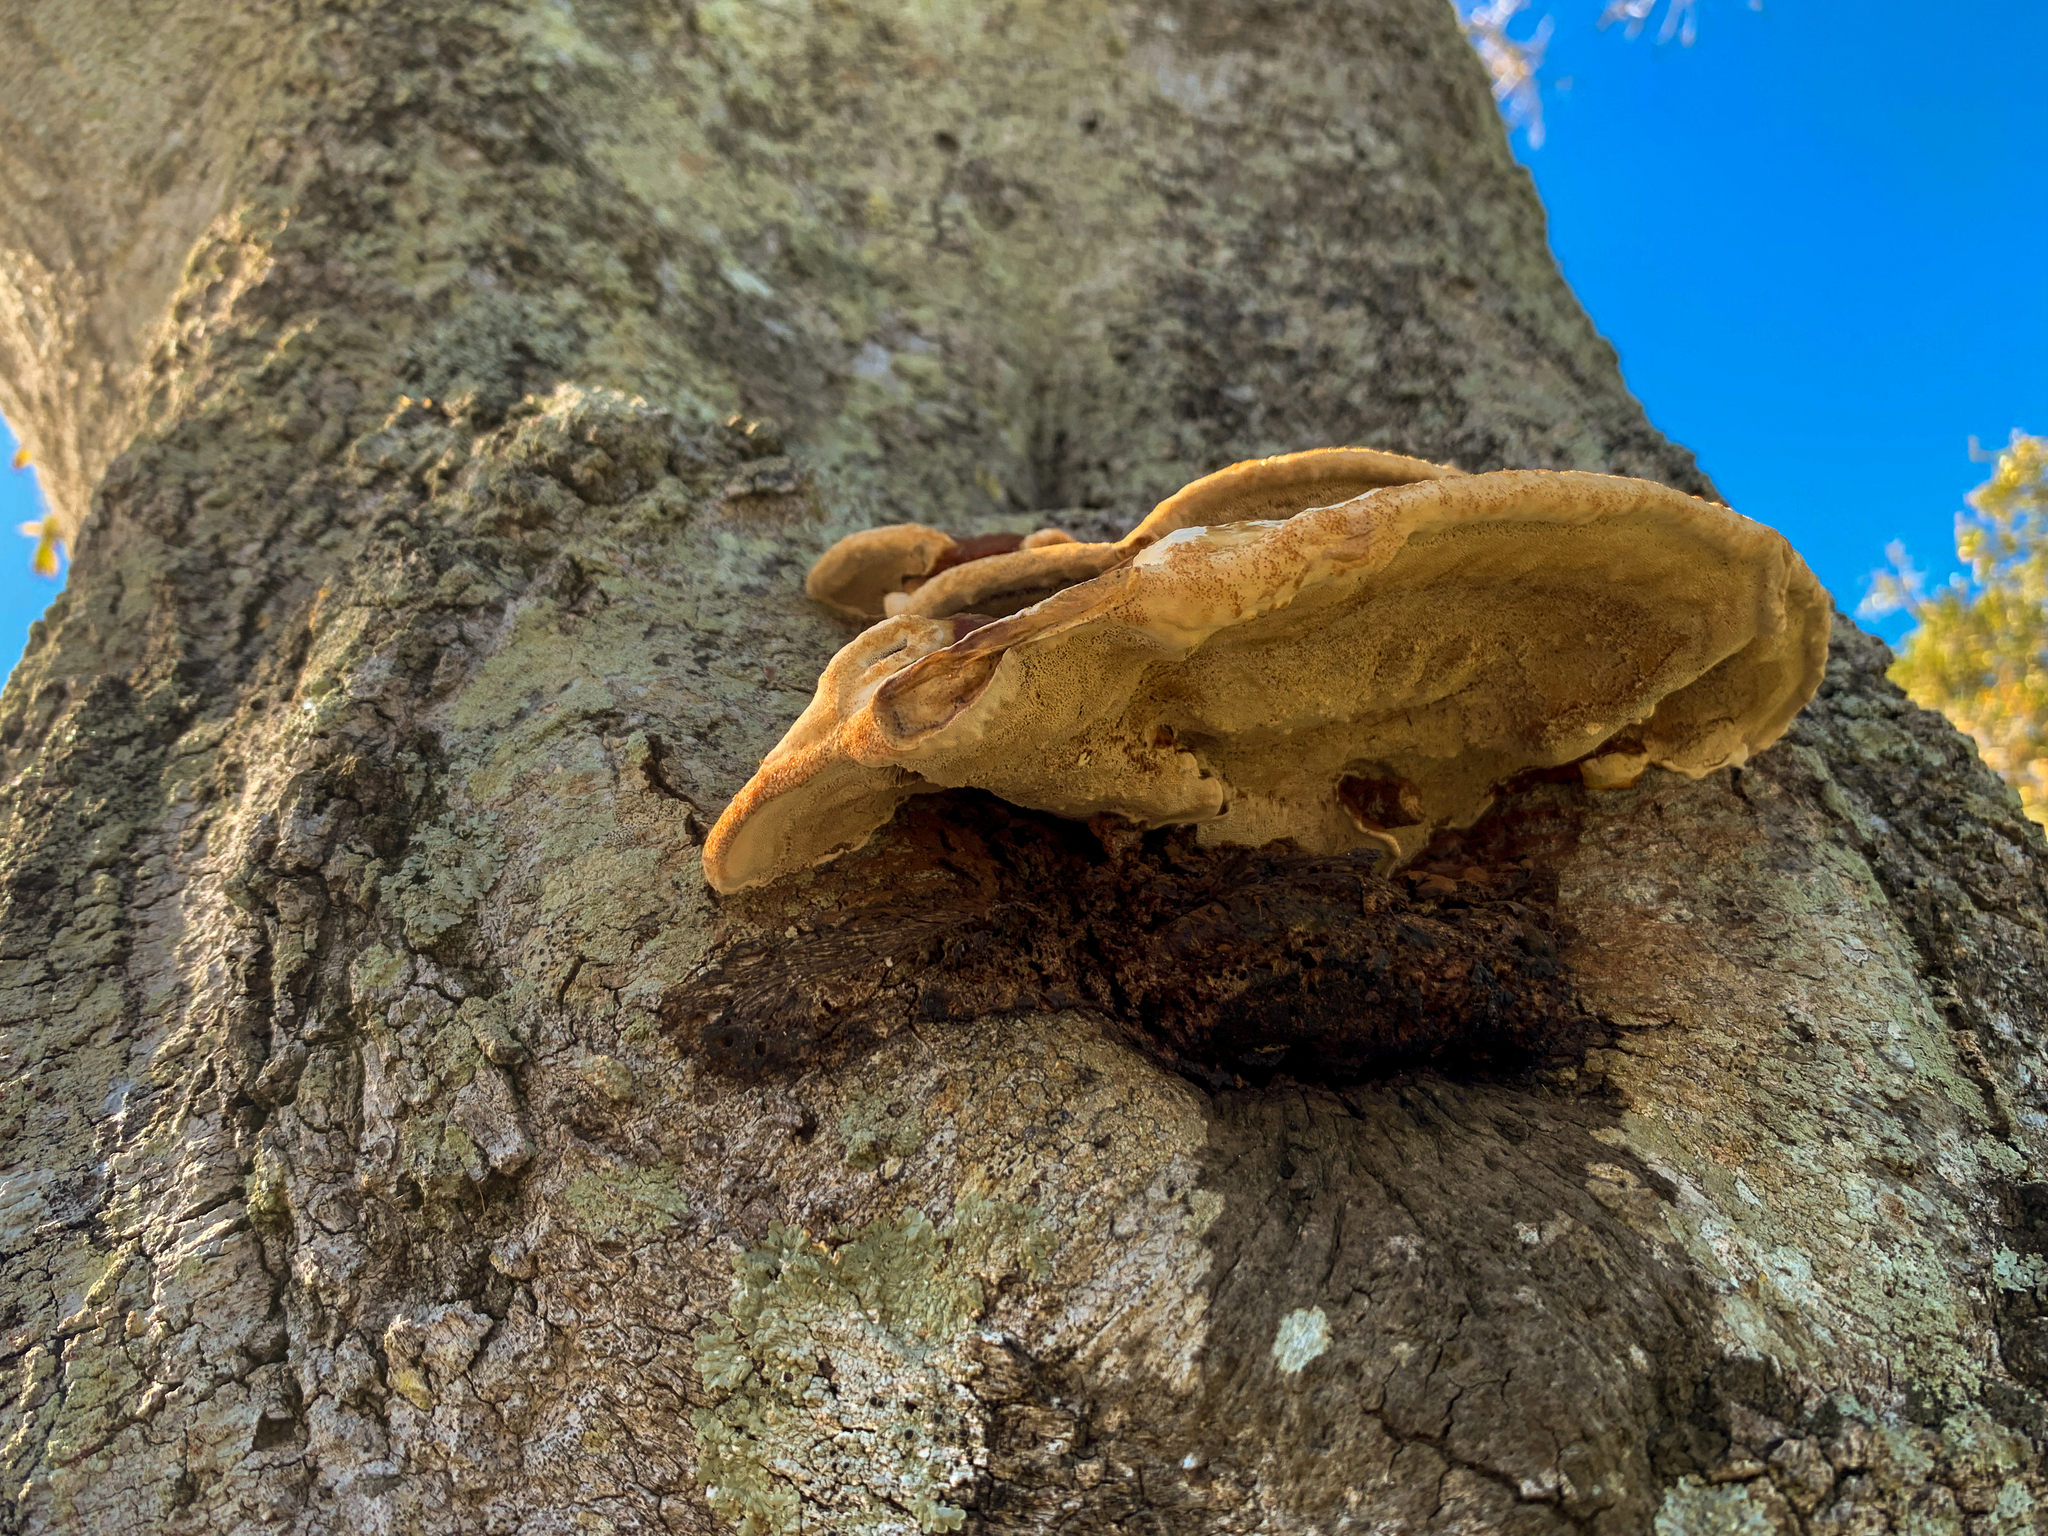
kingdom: Fungi
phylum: Basidiomycota
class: Agaricomycetes
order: Polyporales
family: Polyporaceae
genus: Ganoderma
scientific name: Ganoderma resinaceum
